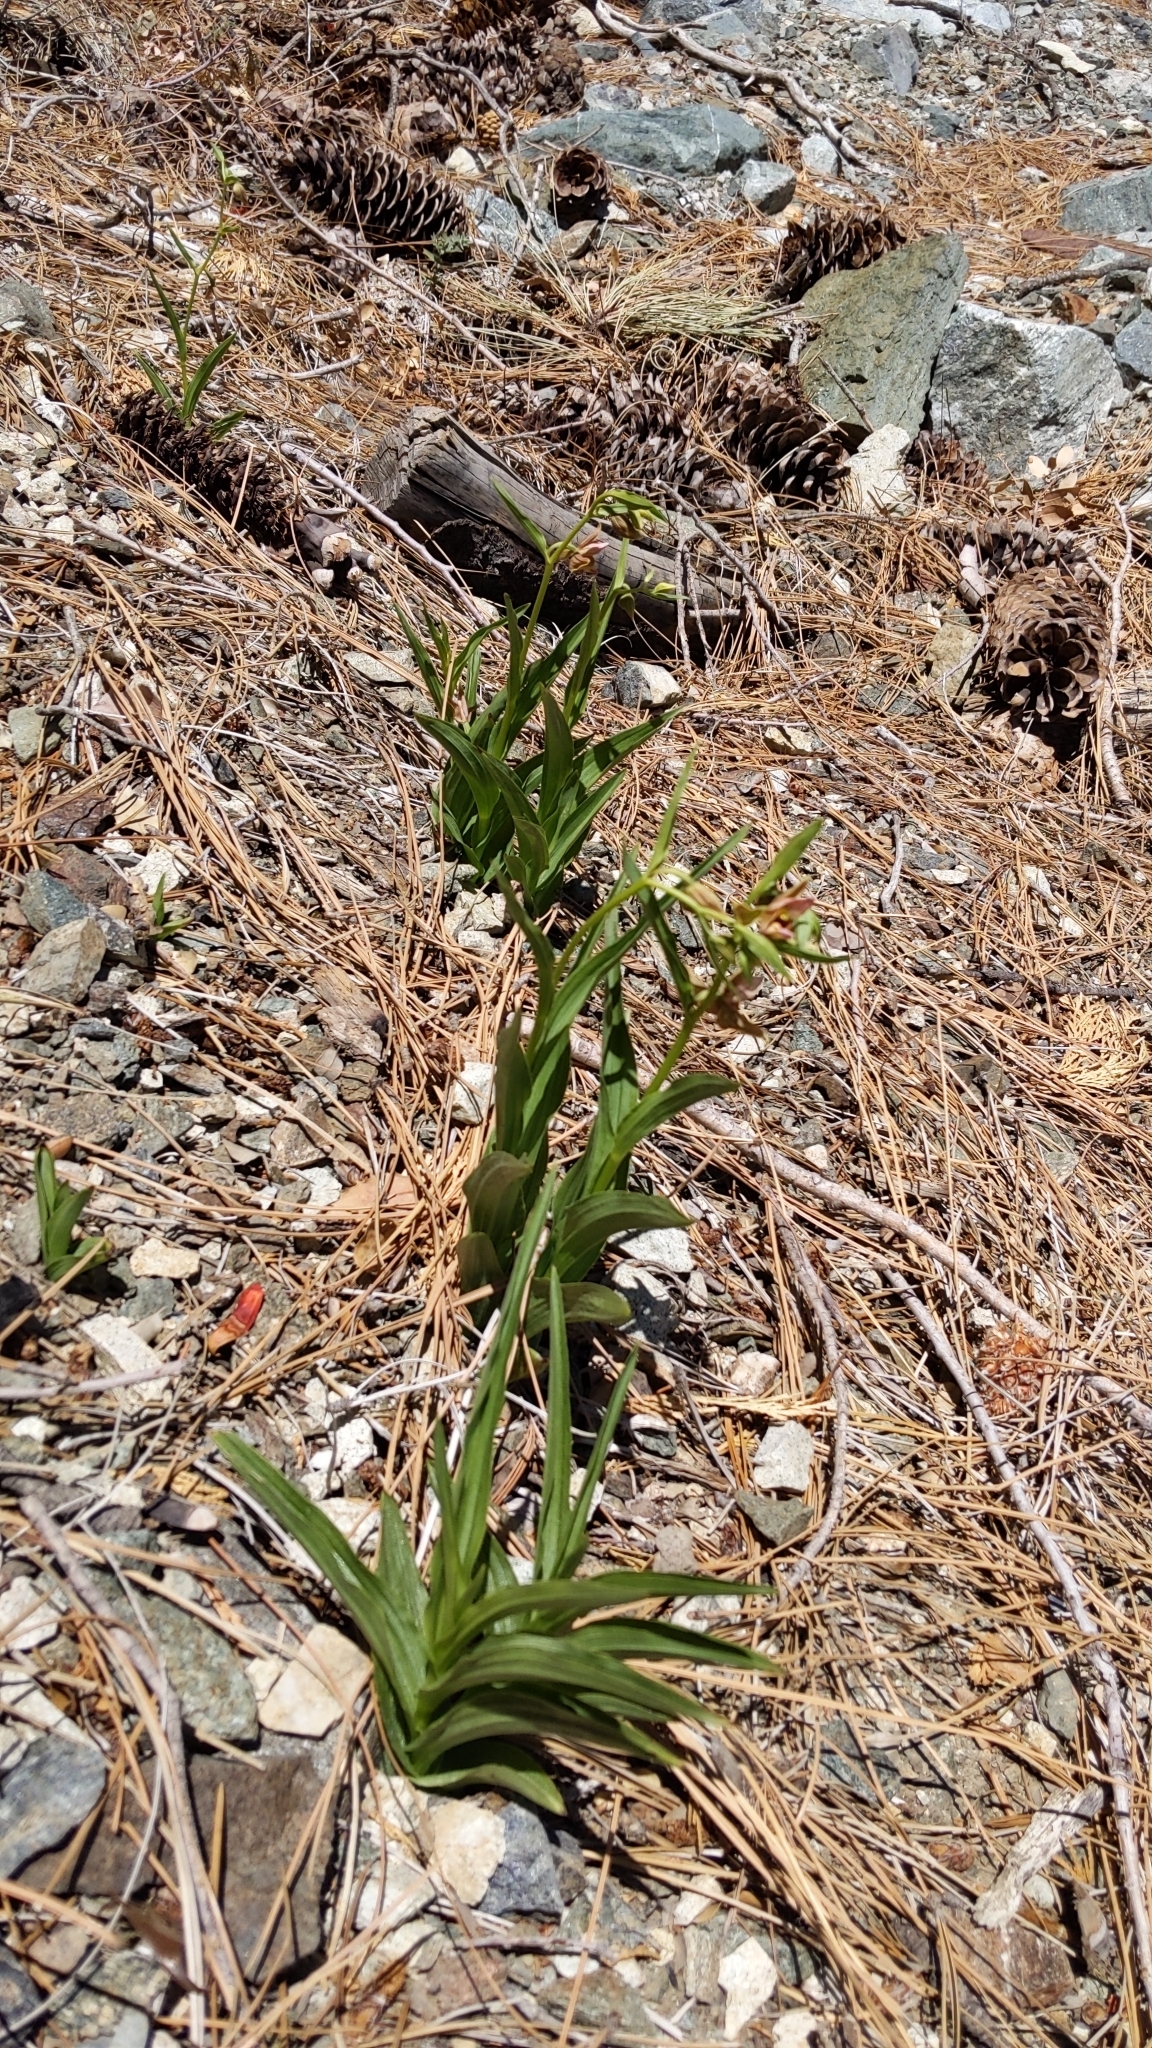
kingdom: Plantae
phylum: Tracheophyta
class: Liliopsida
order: Asparagales
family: Orchidaceae
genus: Epipactis
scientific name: Epipactis gigantea
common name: Chatterbox
